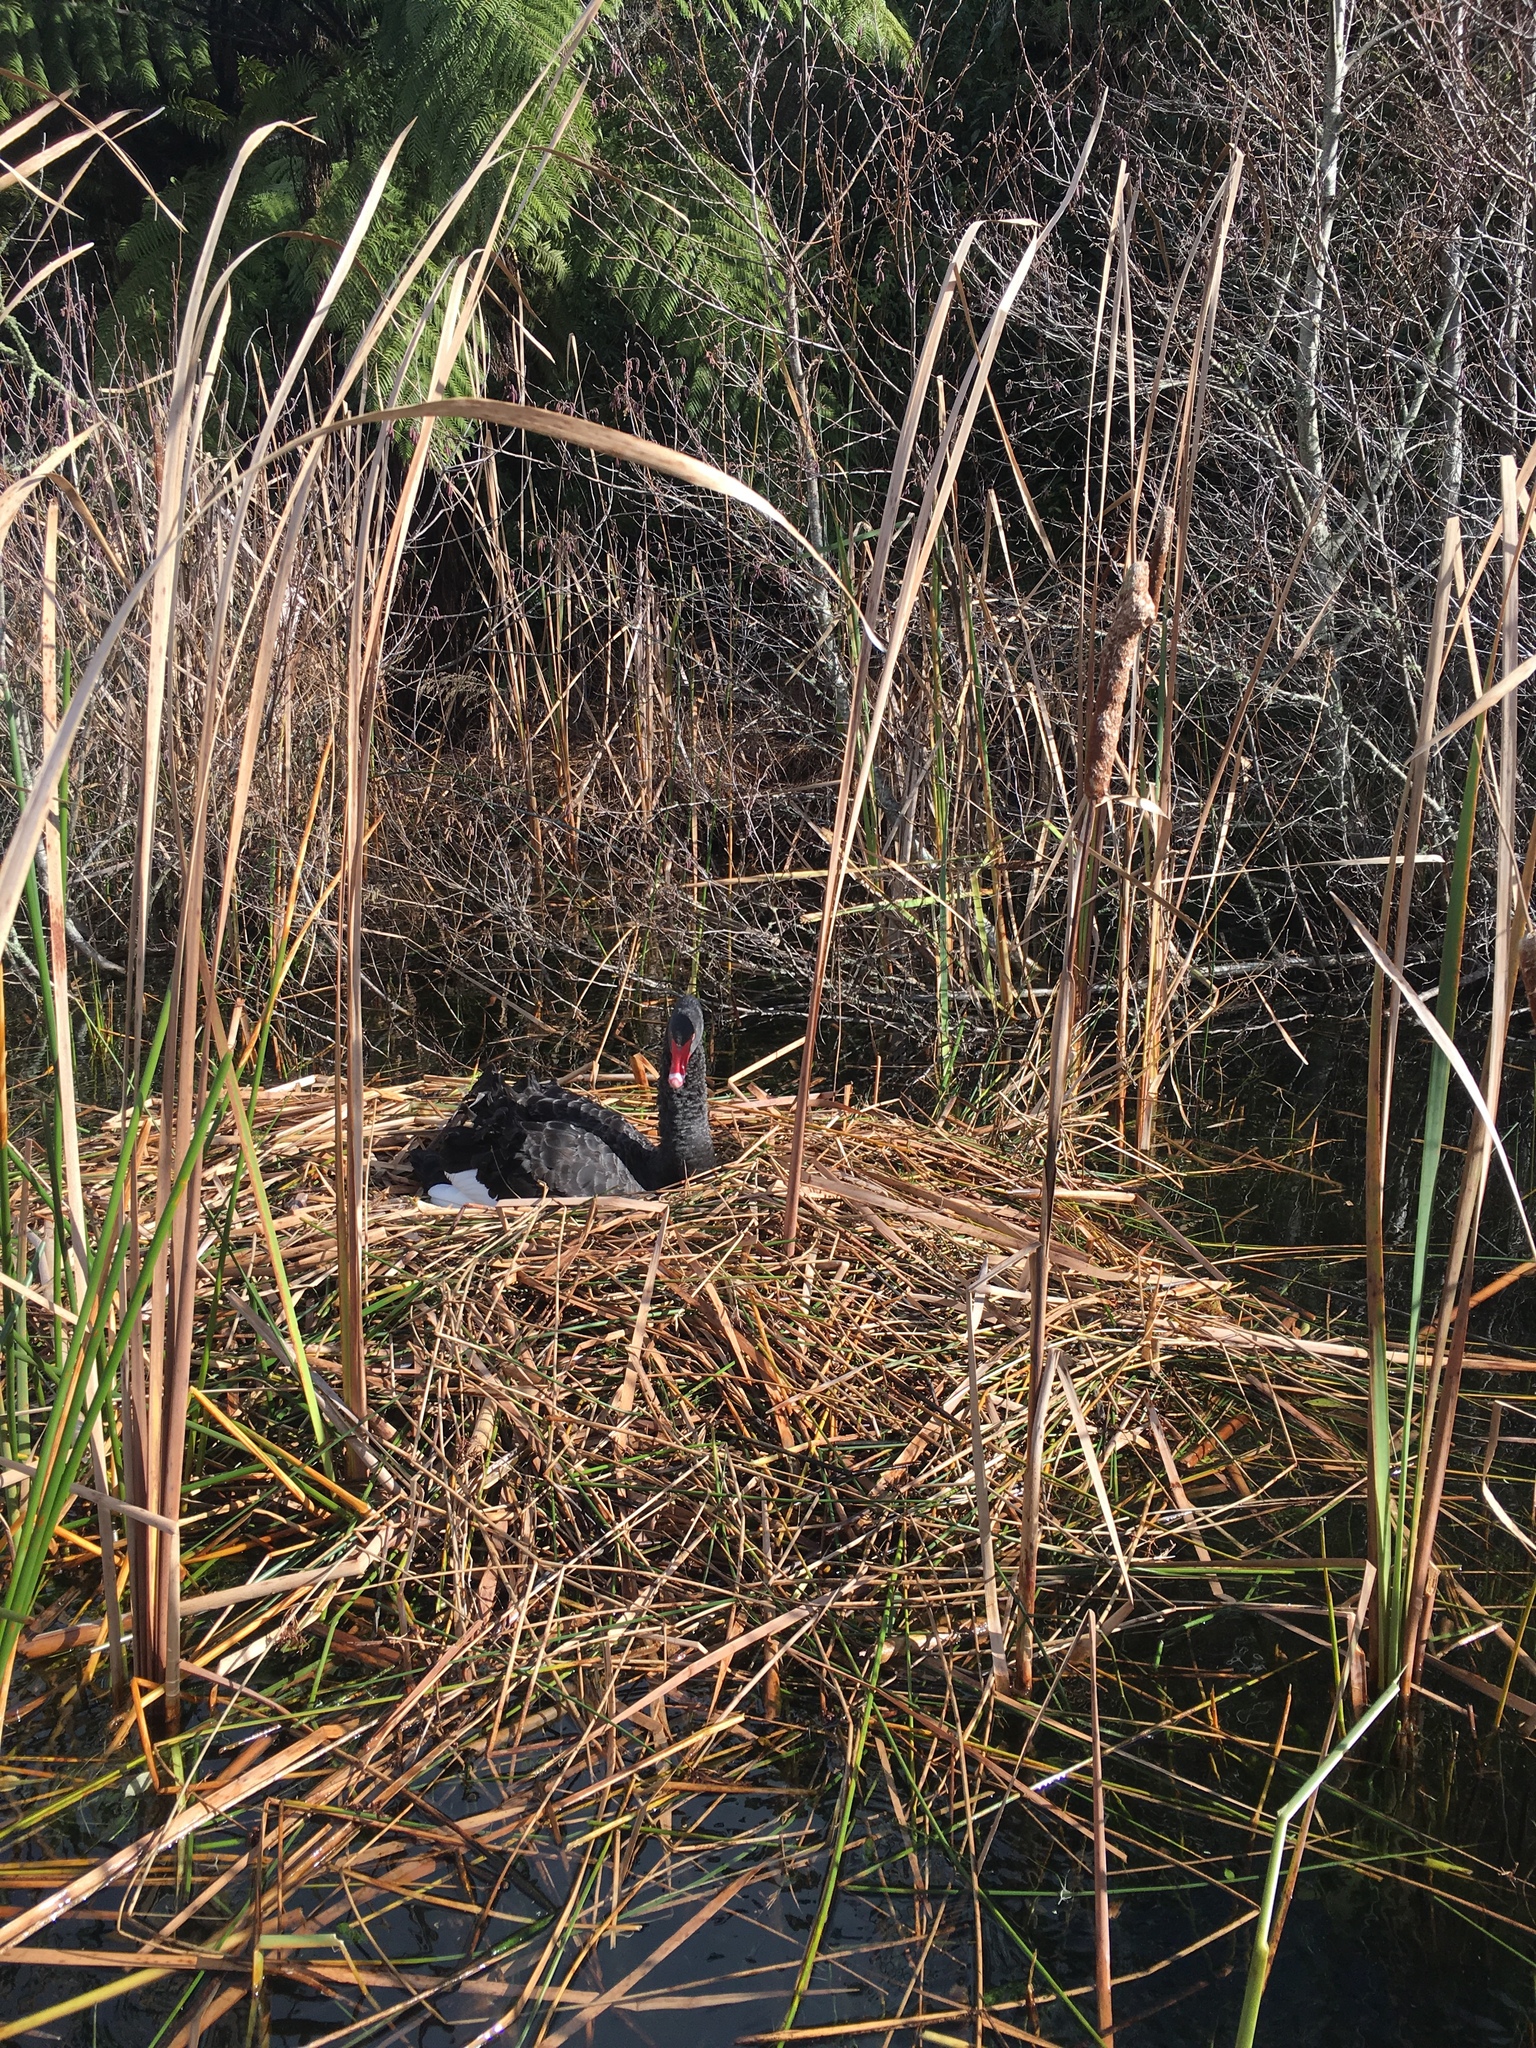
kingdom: Animalia
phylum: Chordata
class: Aves
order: Anseriformes
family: Anatidae
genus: Cygnus
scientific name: Cygnus atratus
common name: Black swan
